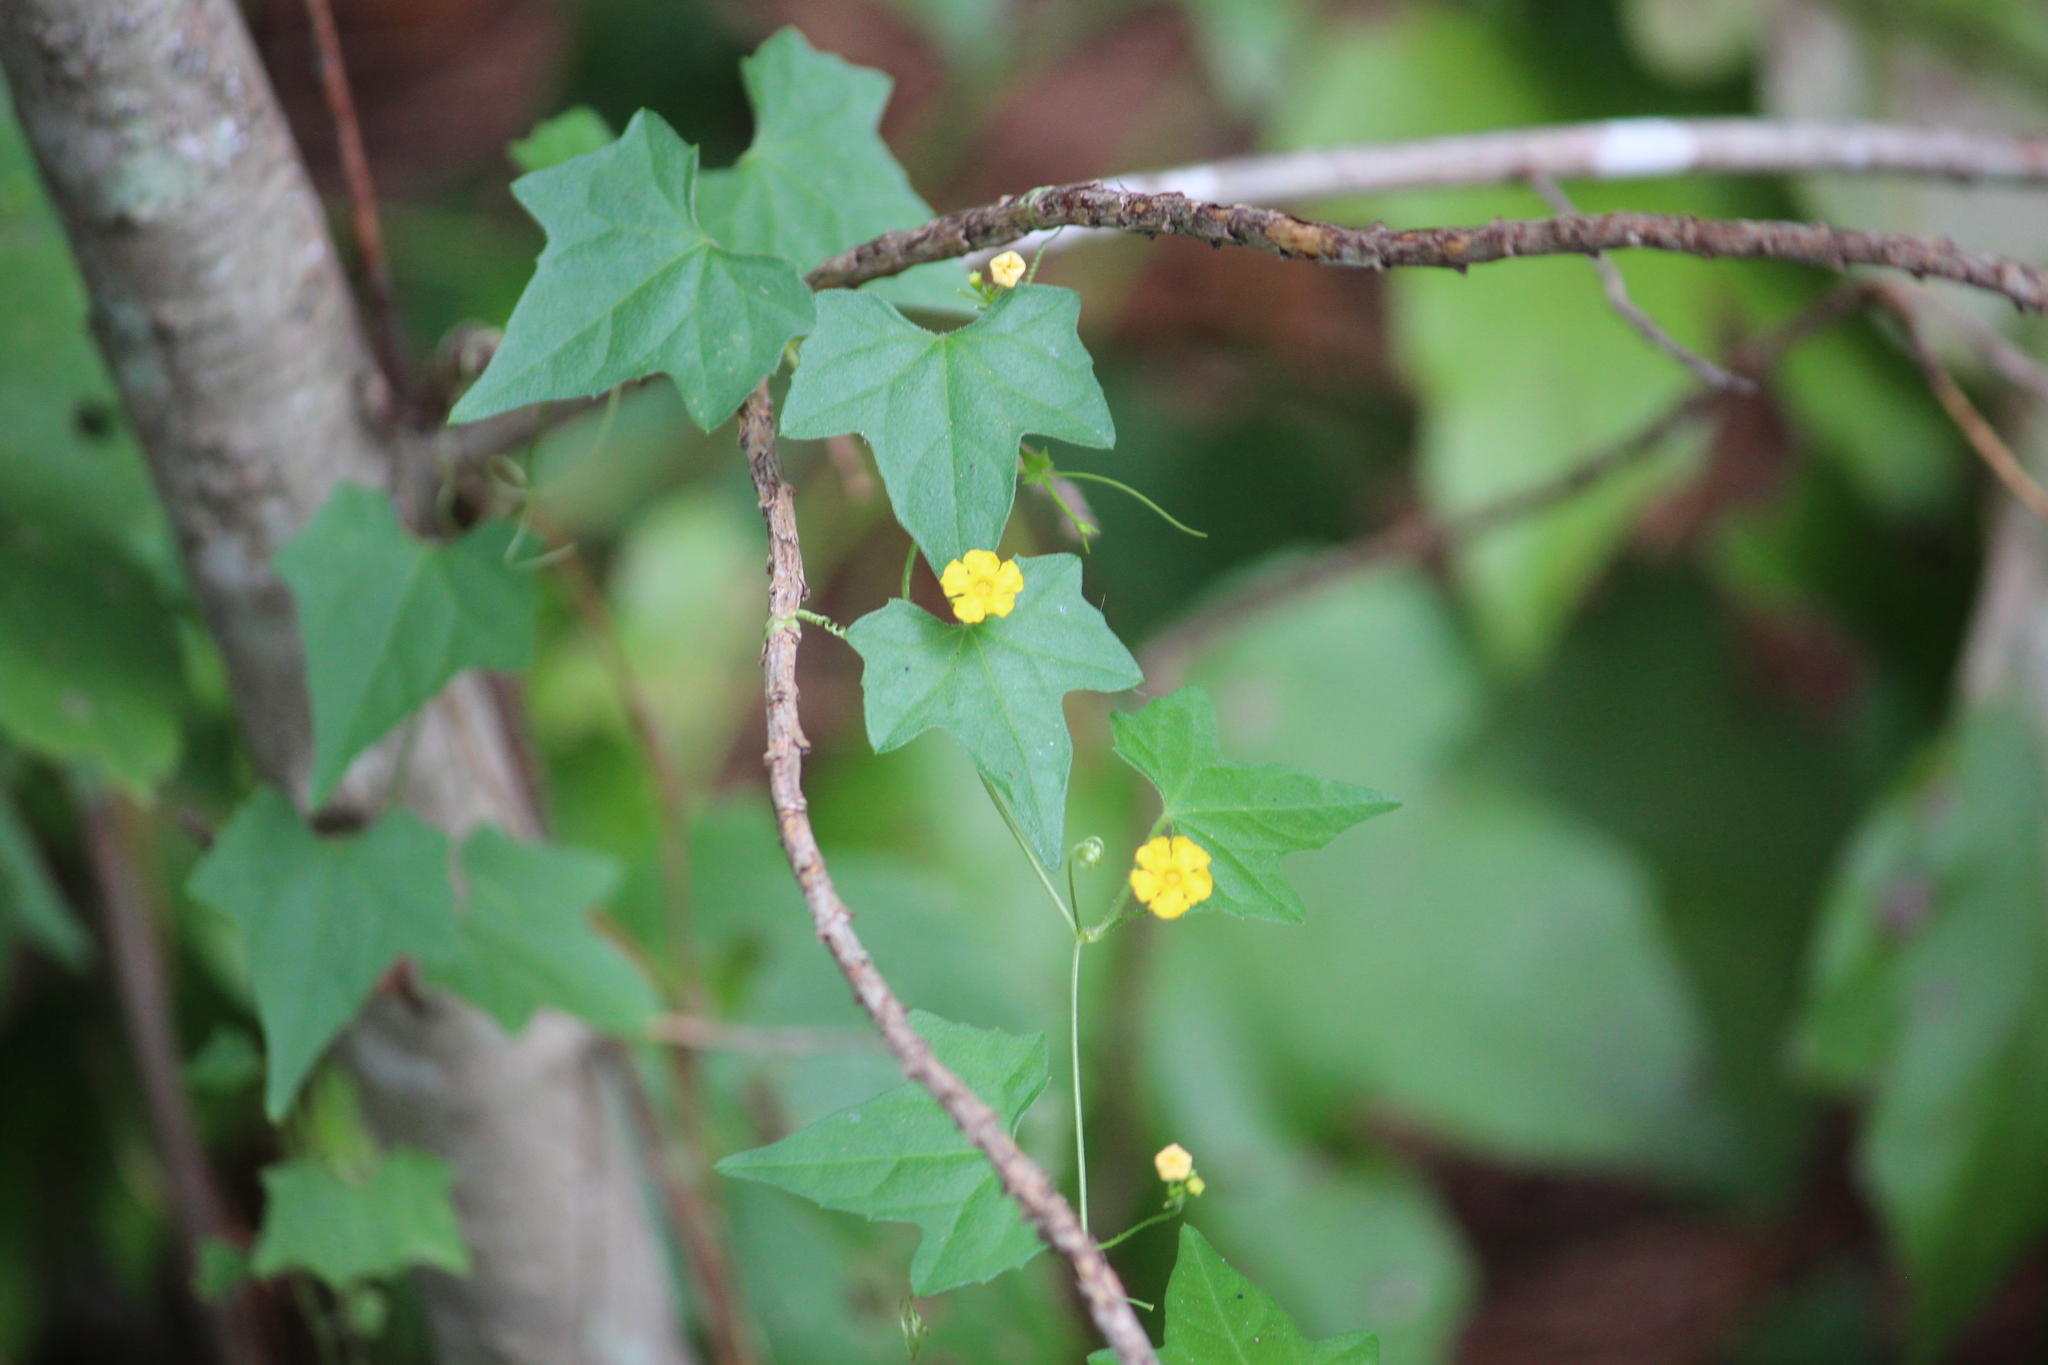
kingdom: Plantae
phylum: Tracheophyta
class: Magnoliopsida
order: Cucurbitales
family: Cucurbitaceae
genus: Melothria
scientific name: Melothria pendula
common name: Creeping-cucumber
